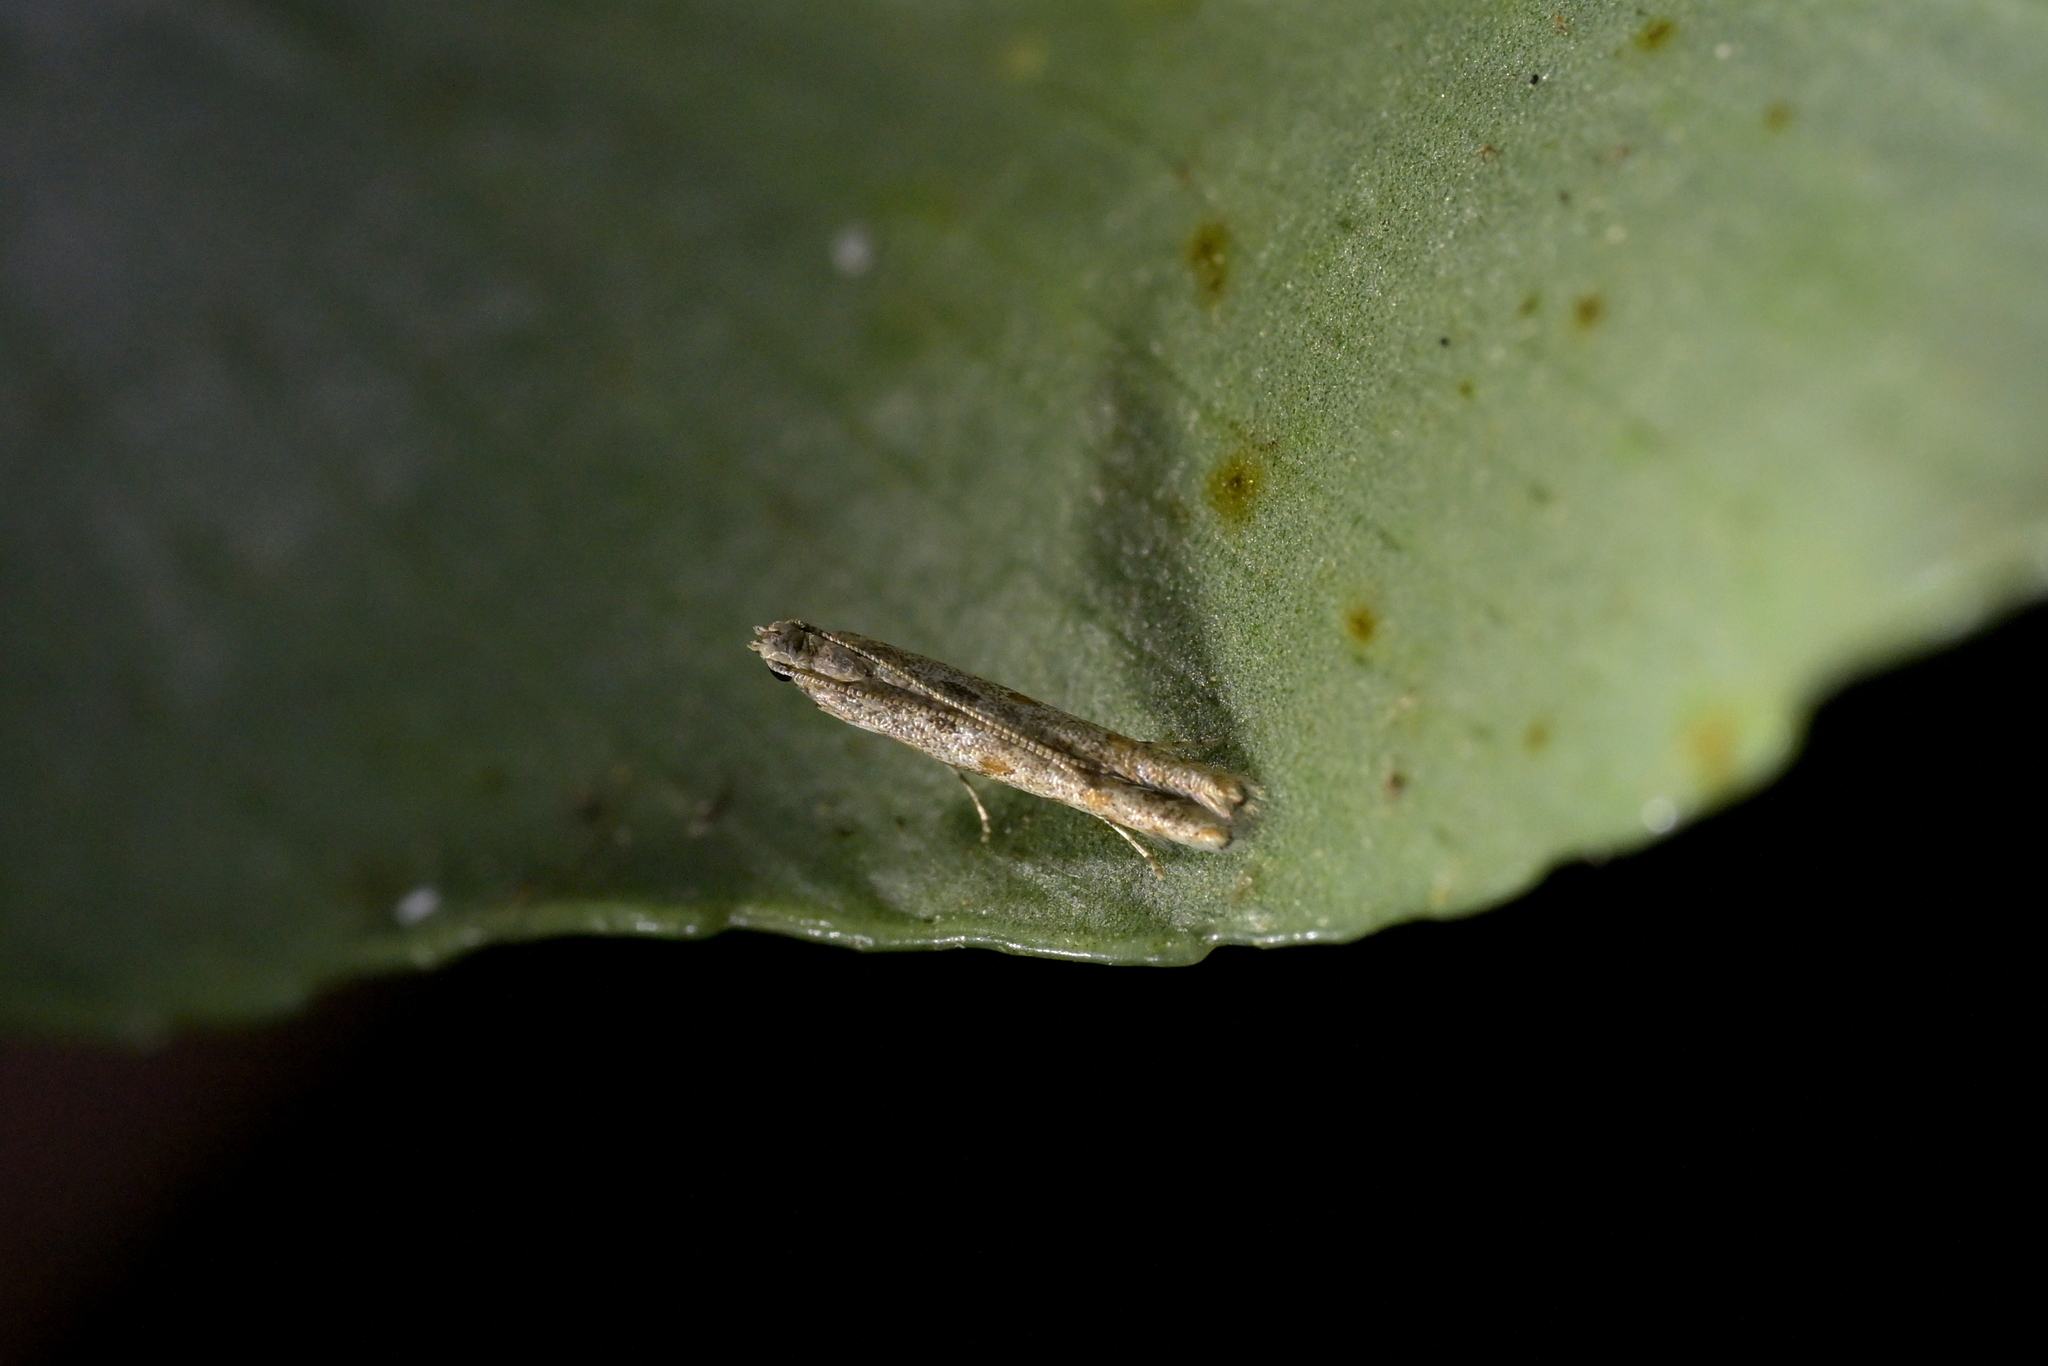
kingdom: Animalia
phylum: Arthropoda
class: Insecta
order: Lepidoptera
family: Batrachedridae
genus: Batrachedra
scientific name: Batrachedra
